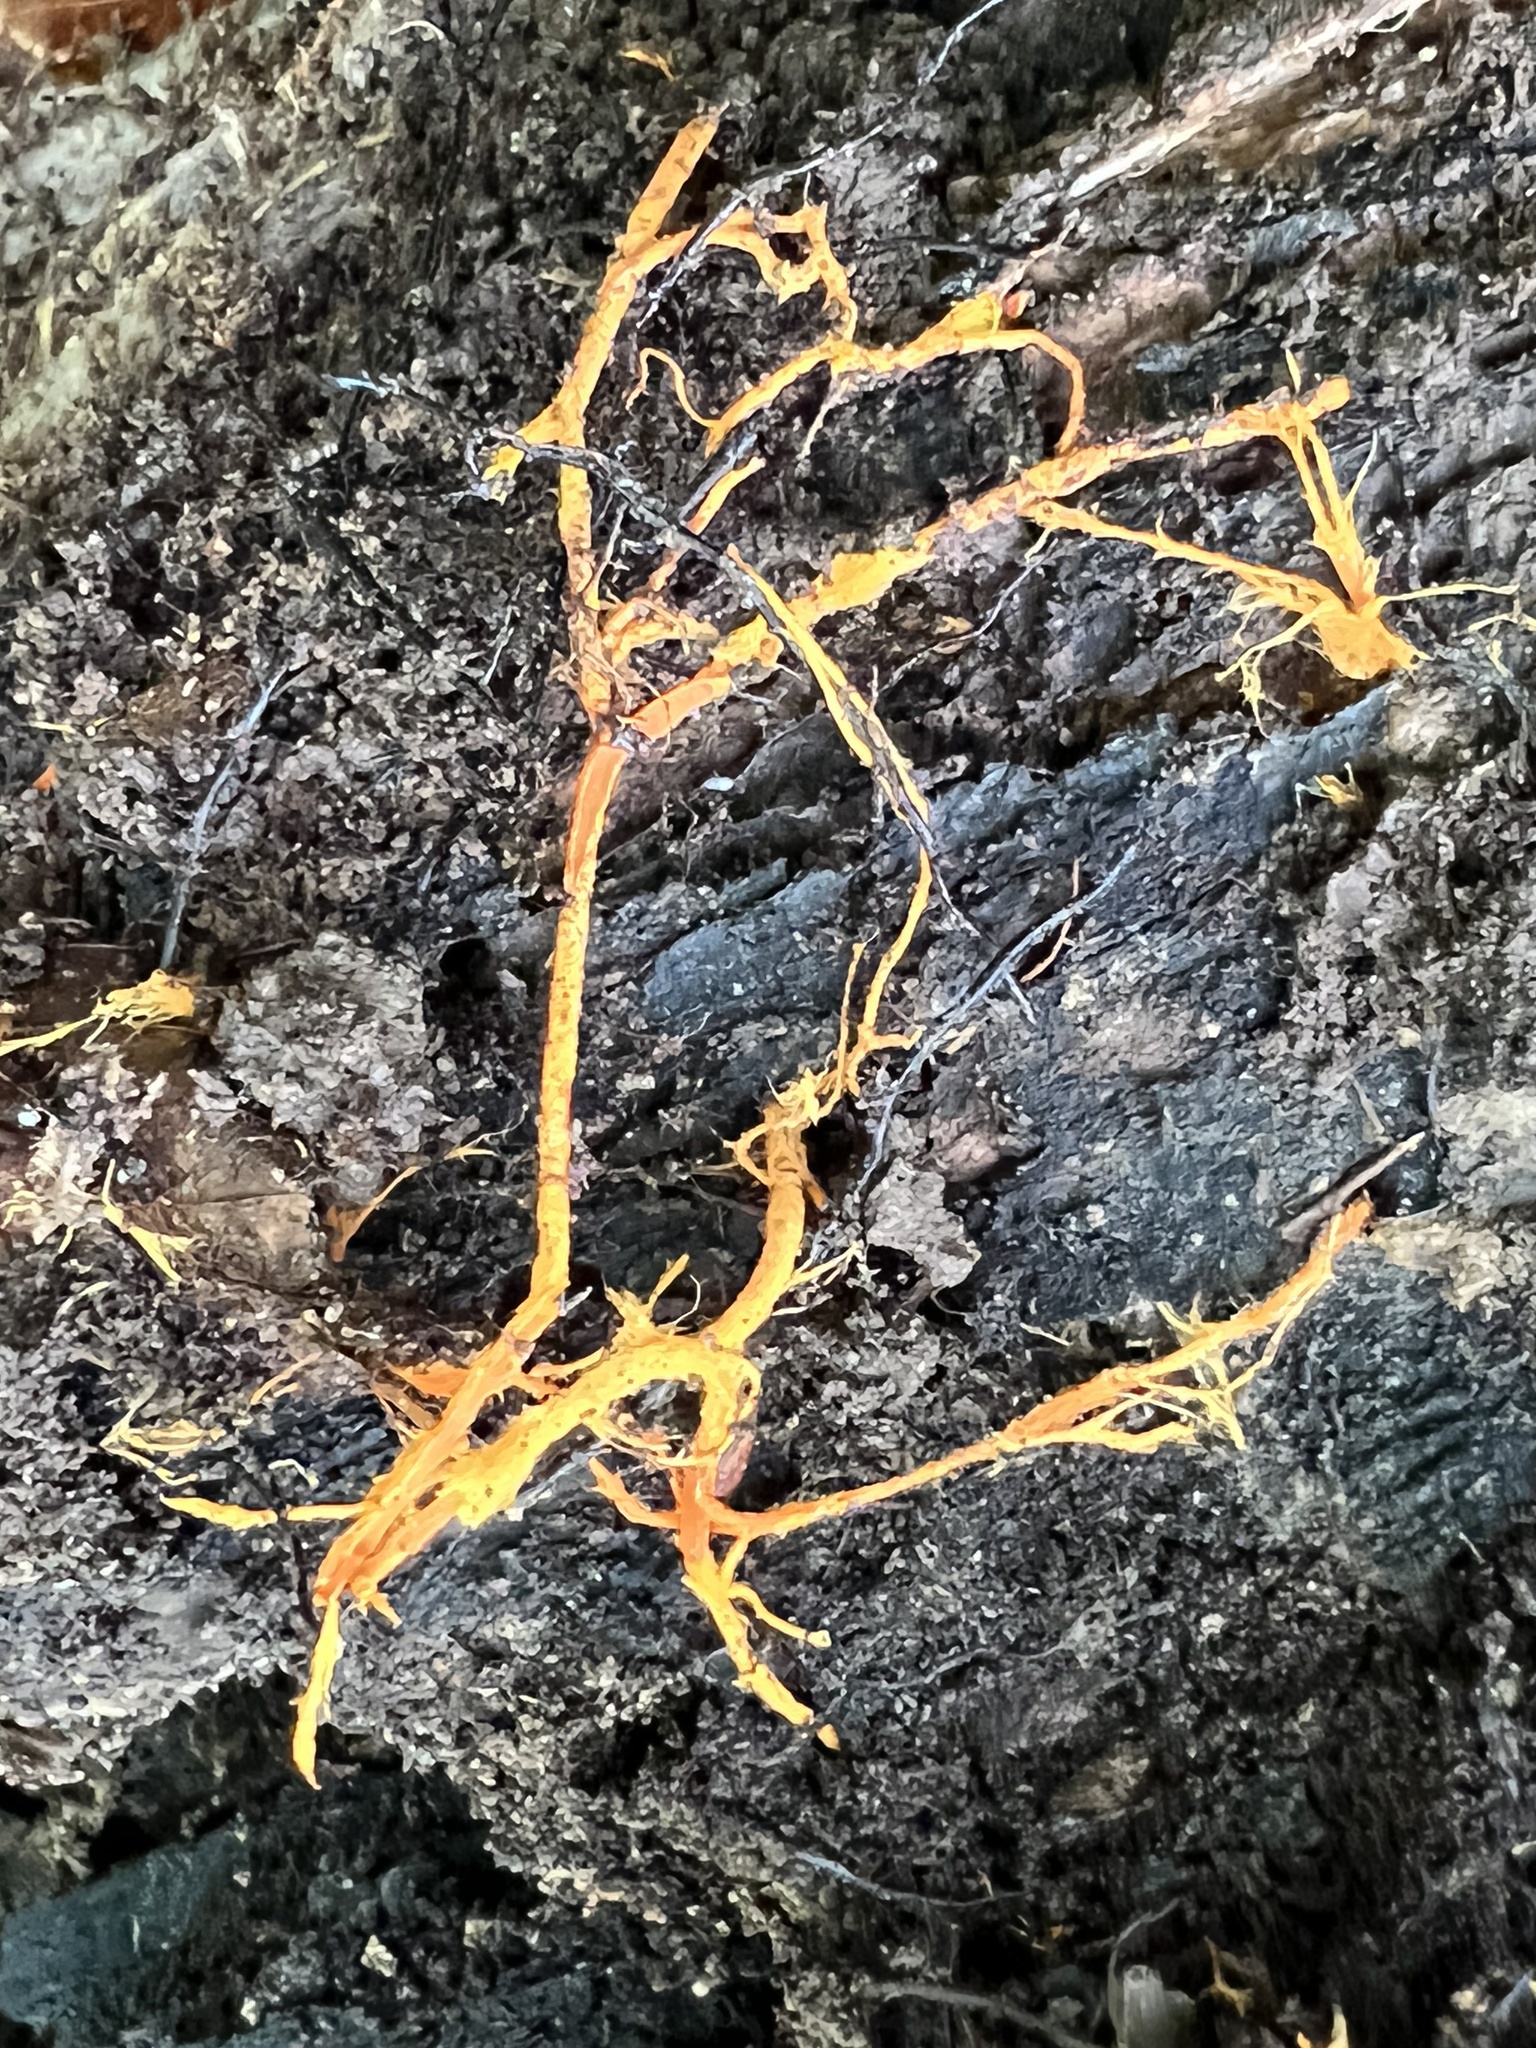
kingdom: Fungi
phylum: Basidiomycota
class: Agaricomycetes
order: Polyporales
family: Meruliaceae
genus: Hydnophlebia
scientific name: Hydnophlebia chrysorhiza
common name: Spreading yellow tooth
